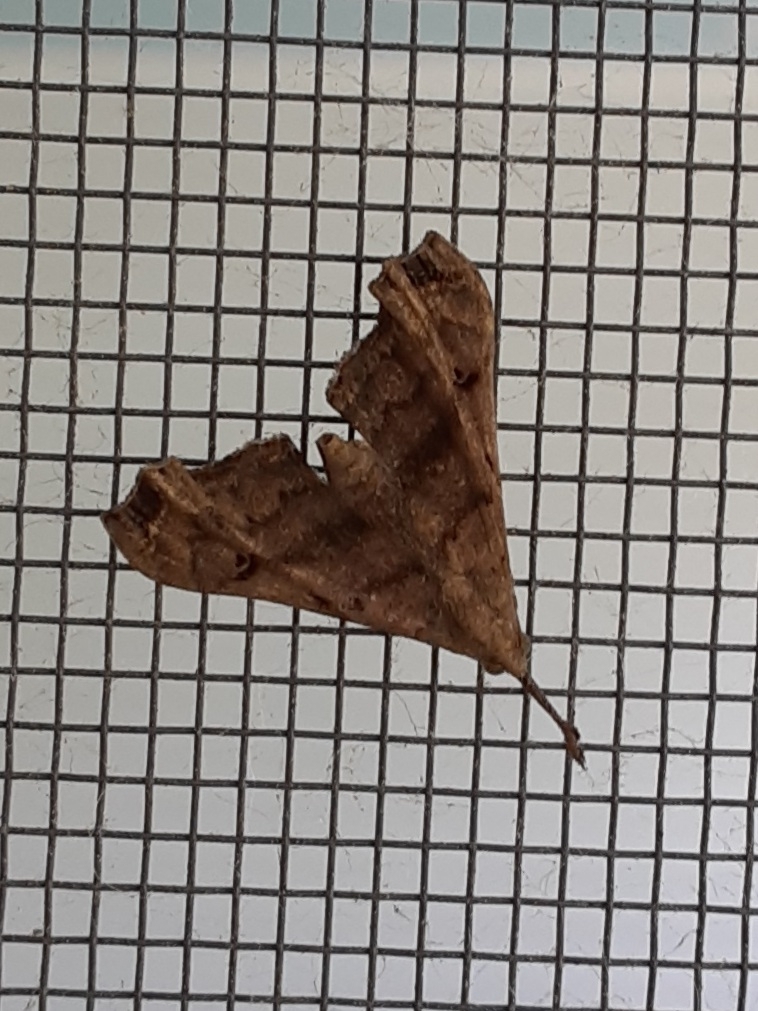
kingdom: Animalia
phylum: Arthropoda
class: Insecta
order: Lepidoptera
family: Erebidae
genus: Palthis
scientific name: Palthis asopialis
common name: Faint-spotted palthis moth
